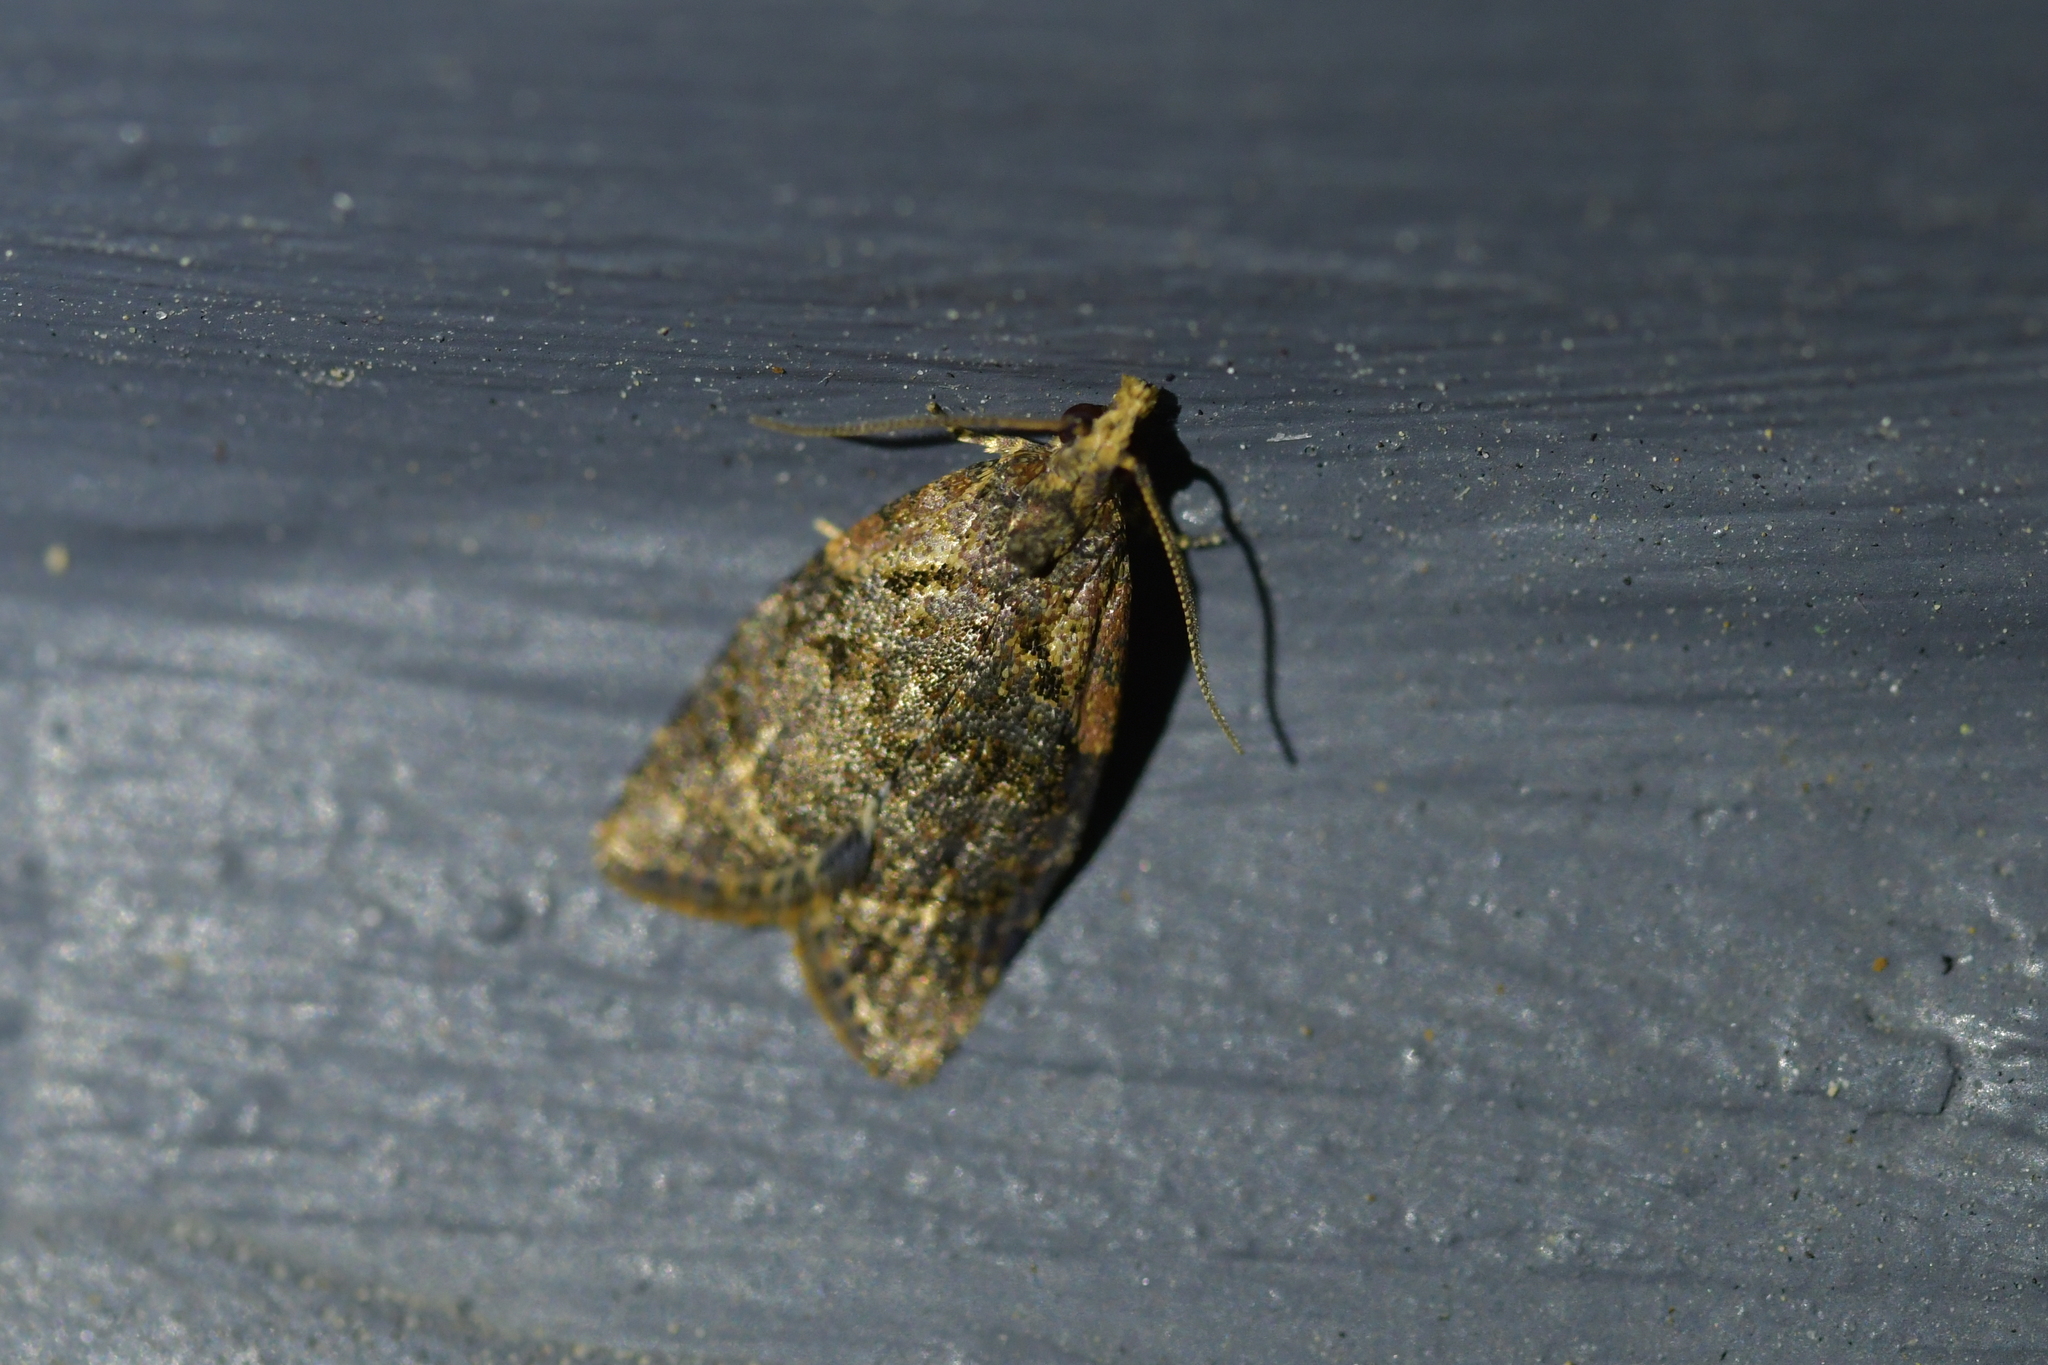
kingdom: Animalia
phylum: Arthropoda
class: Insecta
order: Lepidoptera
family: Tortricidae
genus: Capua
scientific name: Capua intractana
